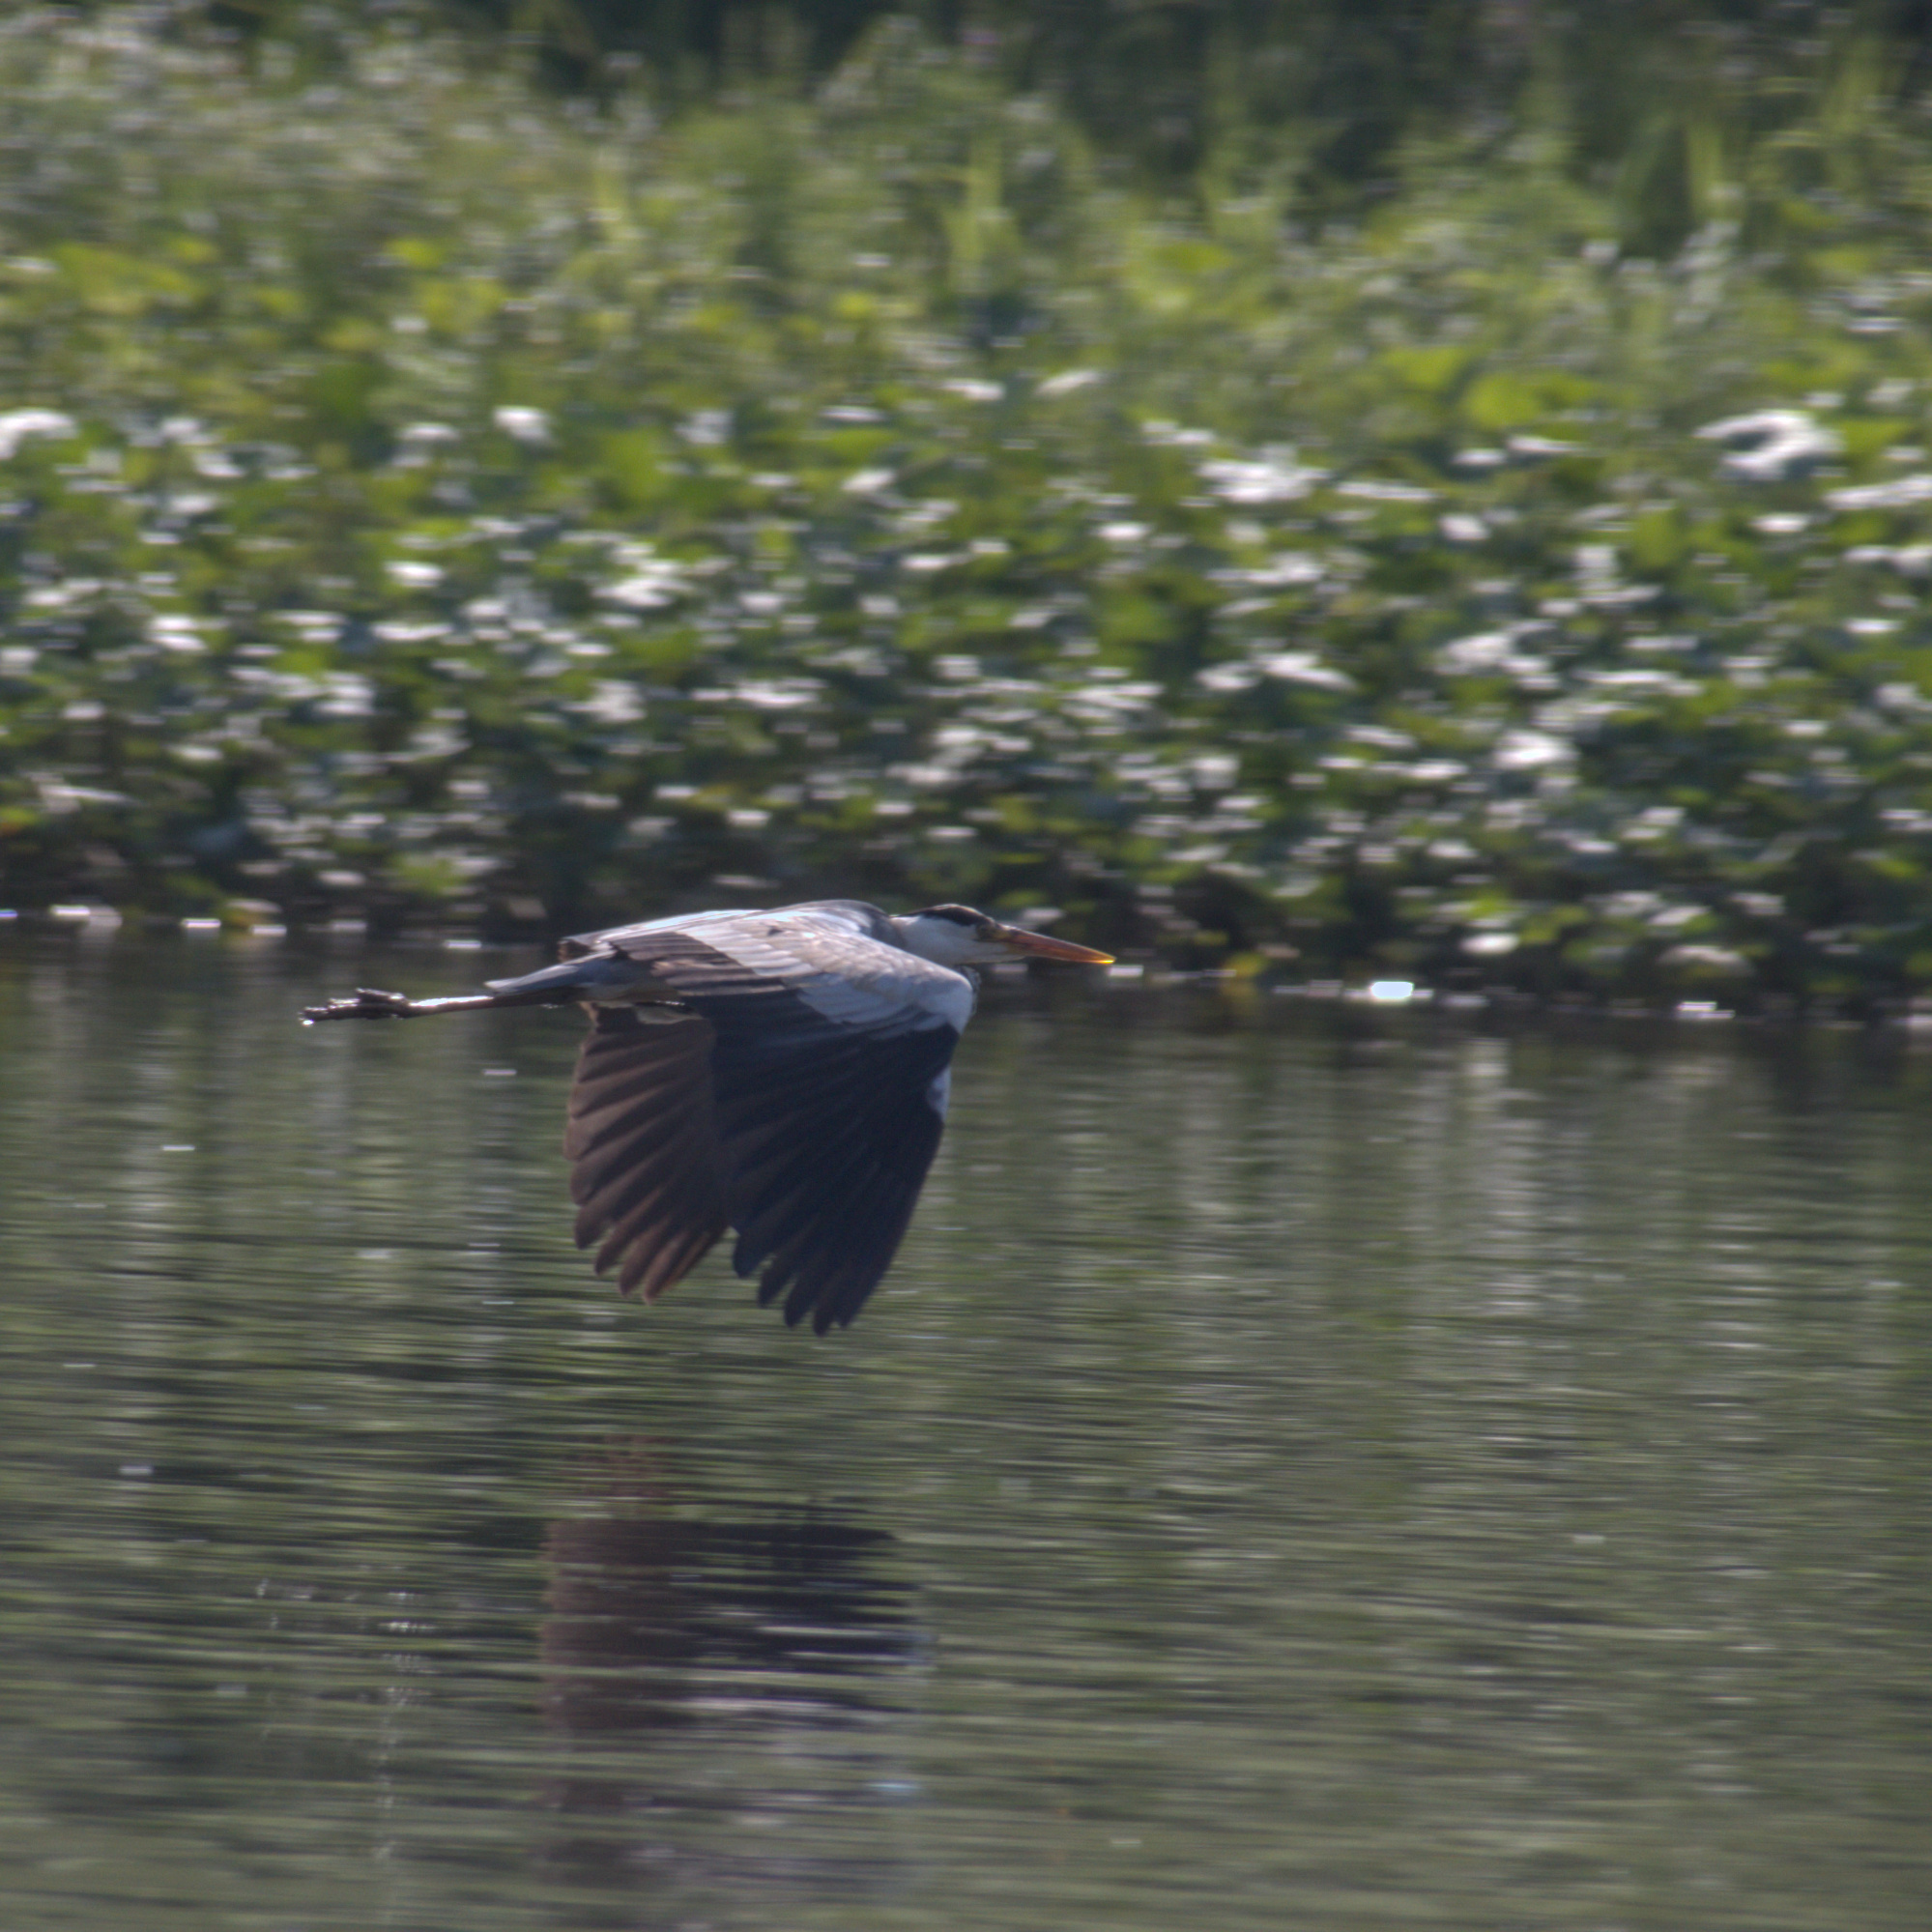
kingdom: Animalia
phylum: Chordata
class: Aves
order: Pelecaniformes
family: Ardeidae
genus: Ardea
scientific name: Ardea cinerea
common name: Grey heron
